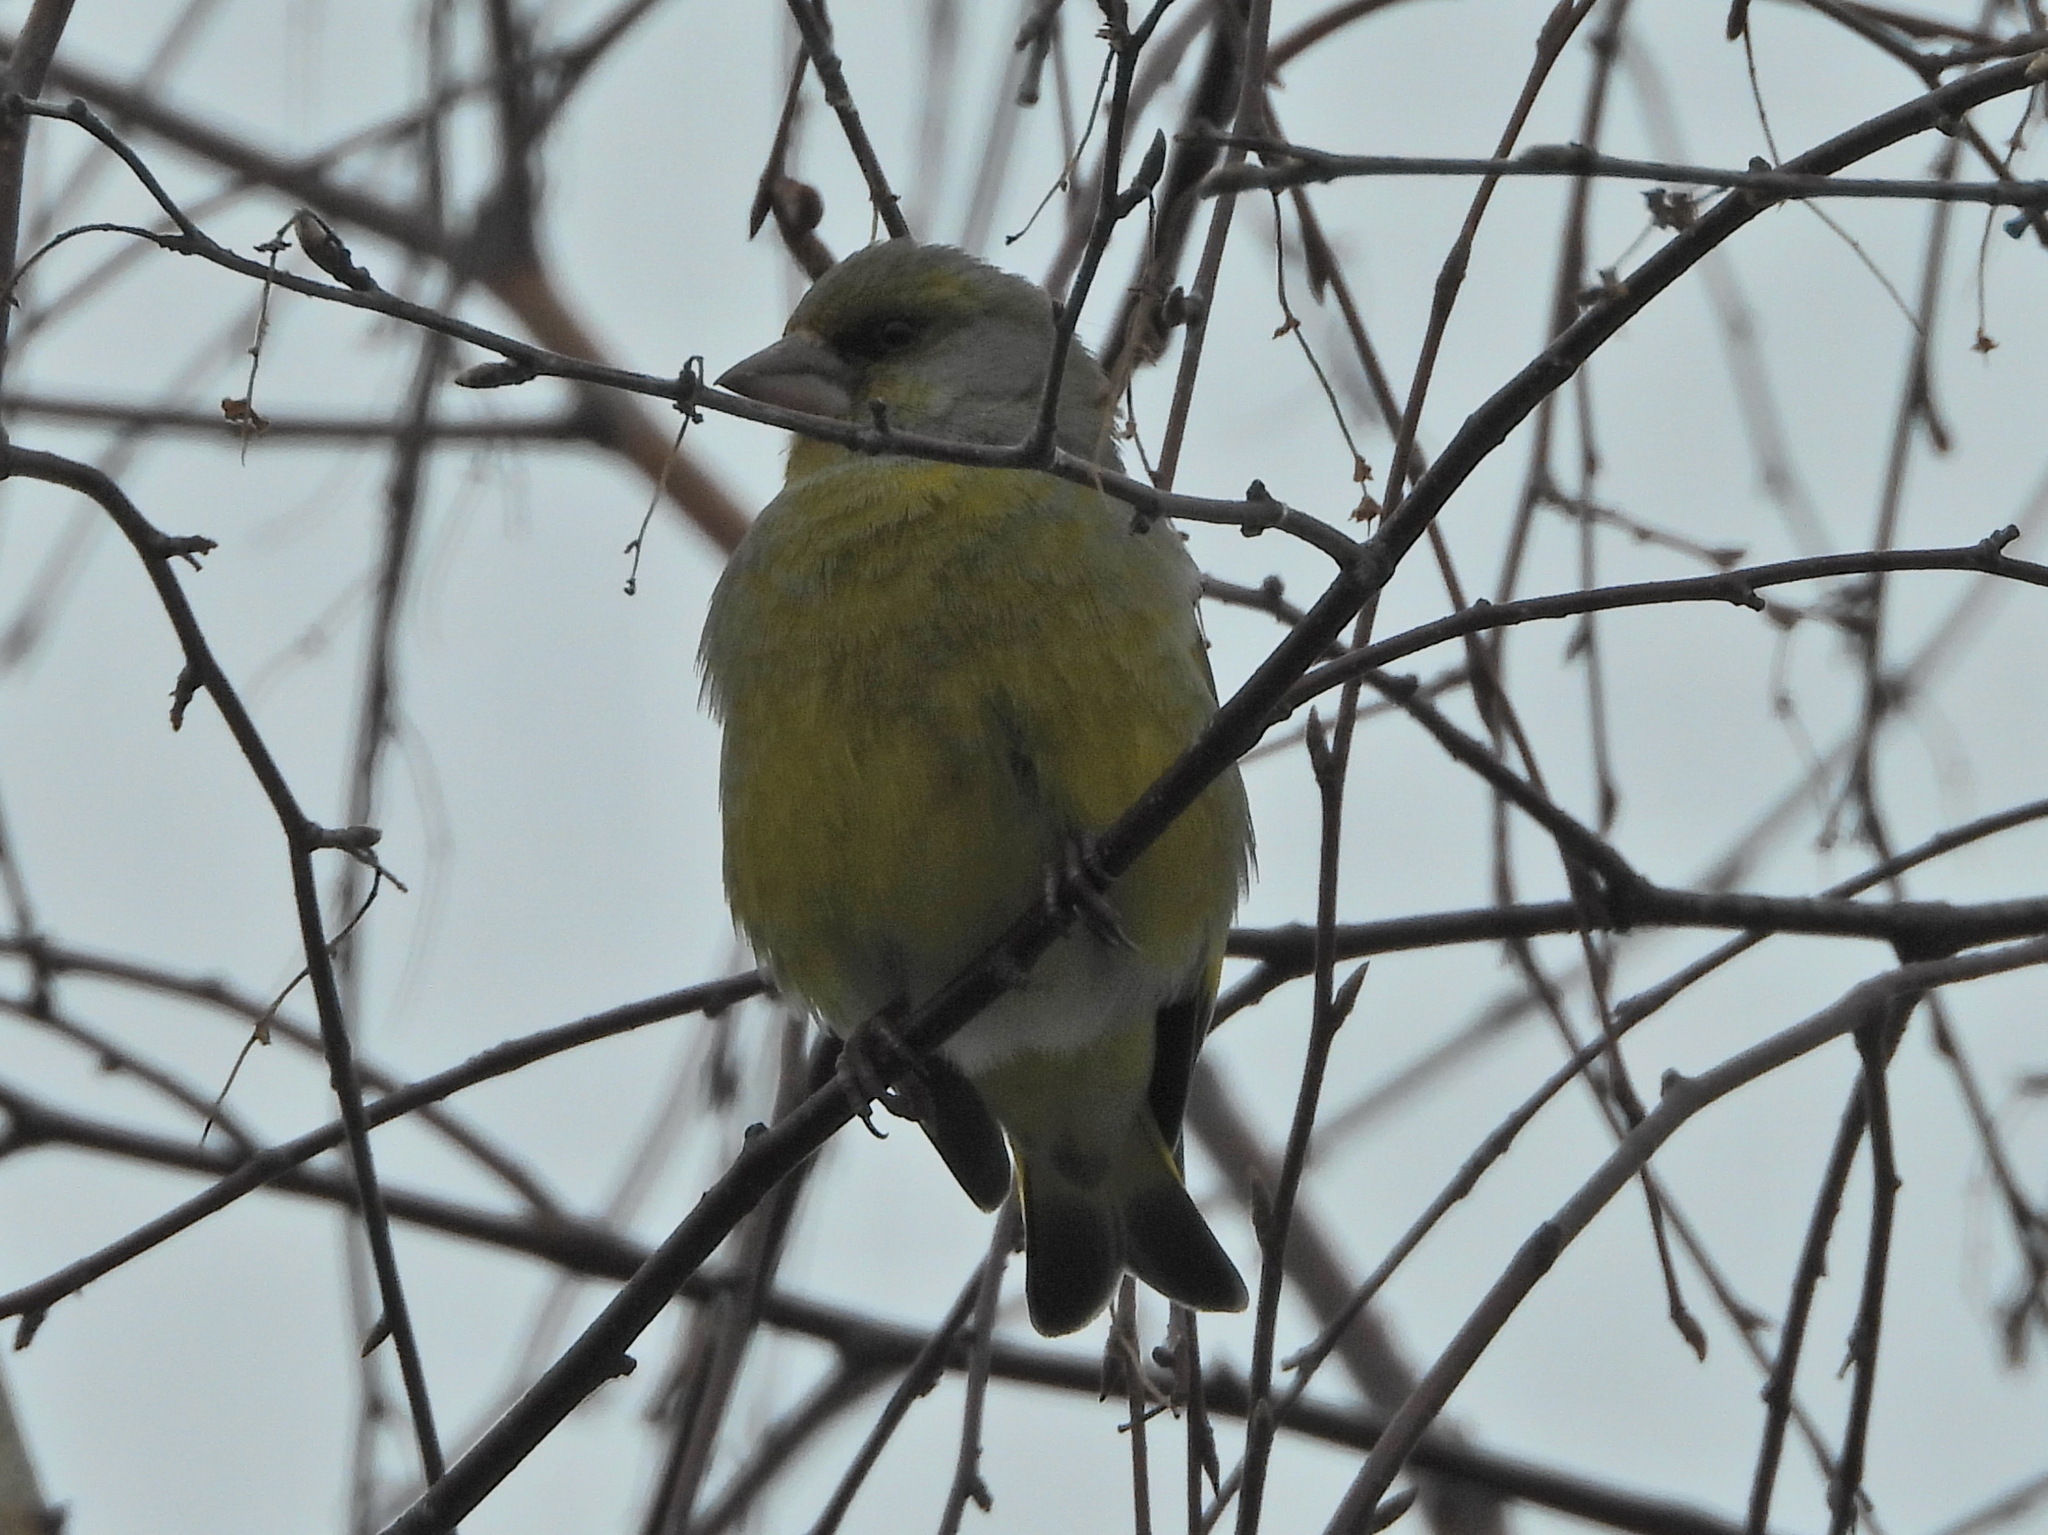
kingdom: Plantae
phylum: Tracheophyta
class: Liliopsida
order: Poales
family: Poaceae
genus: Chloris
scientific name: Chloris chloris
